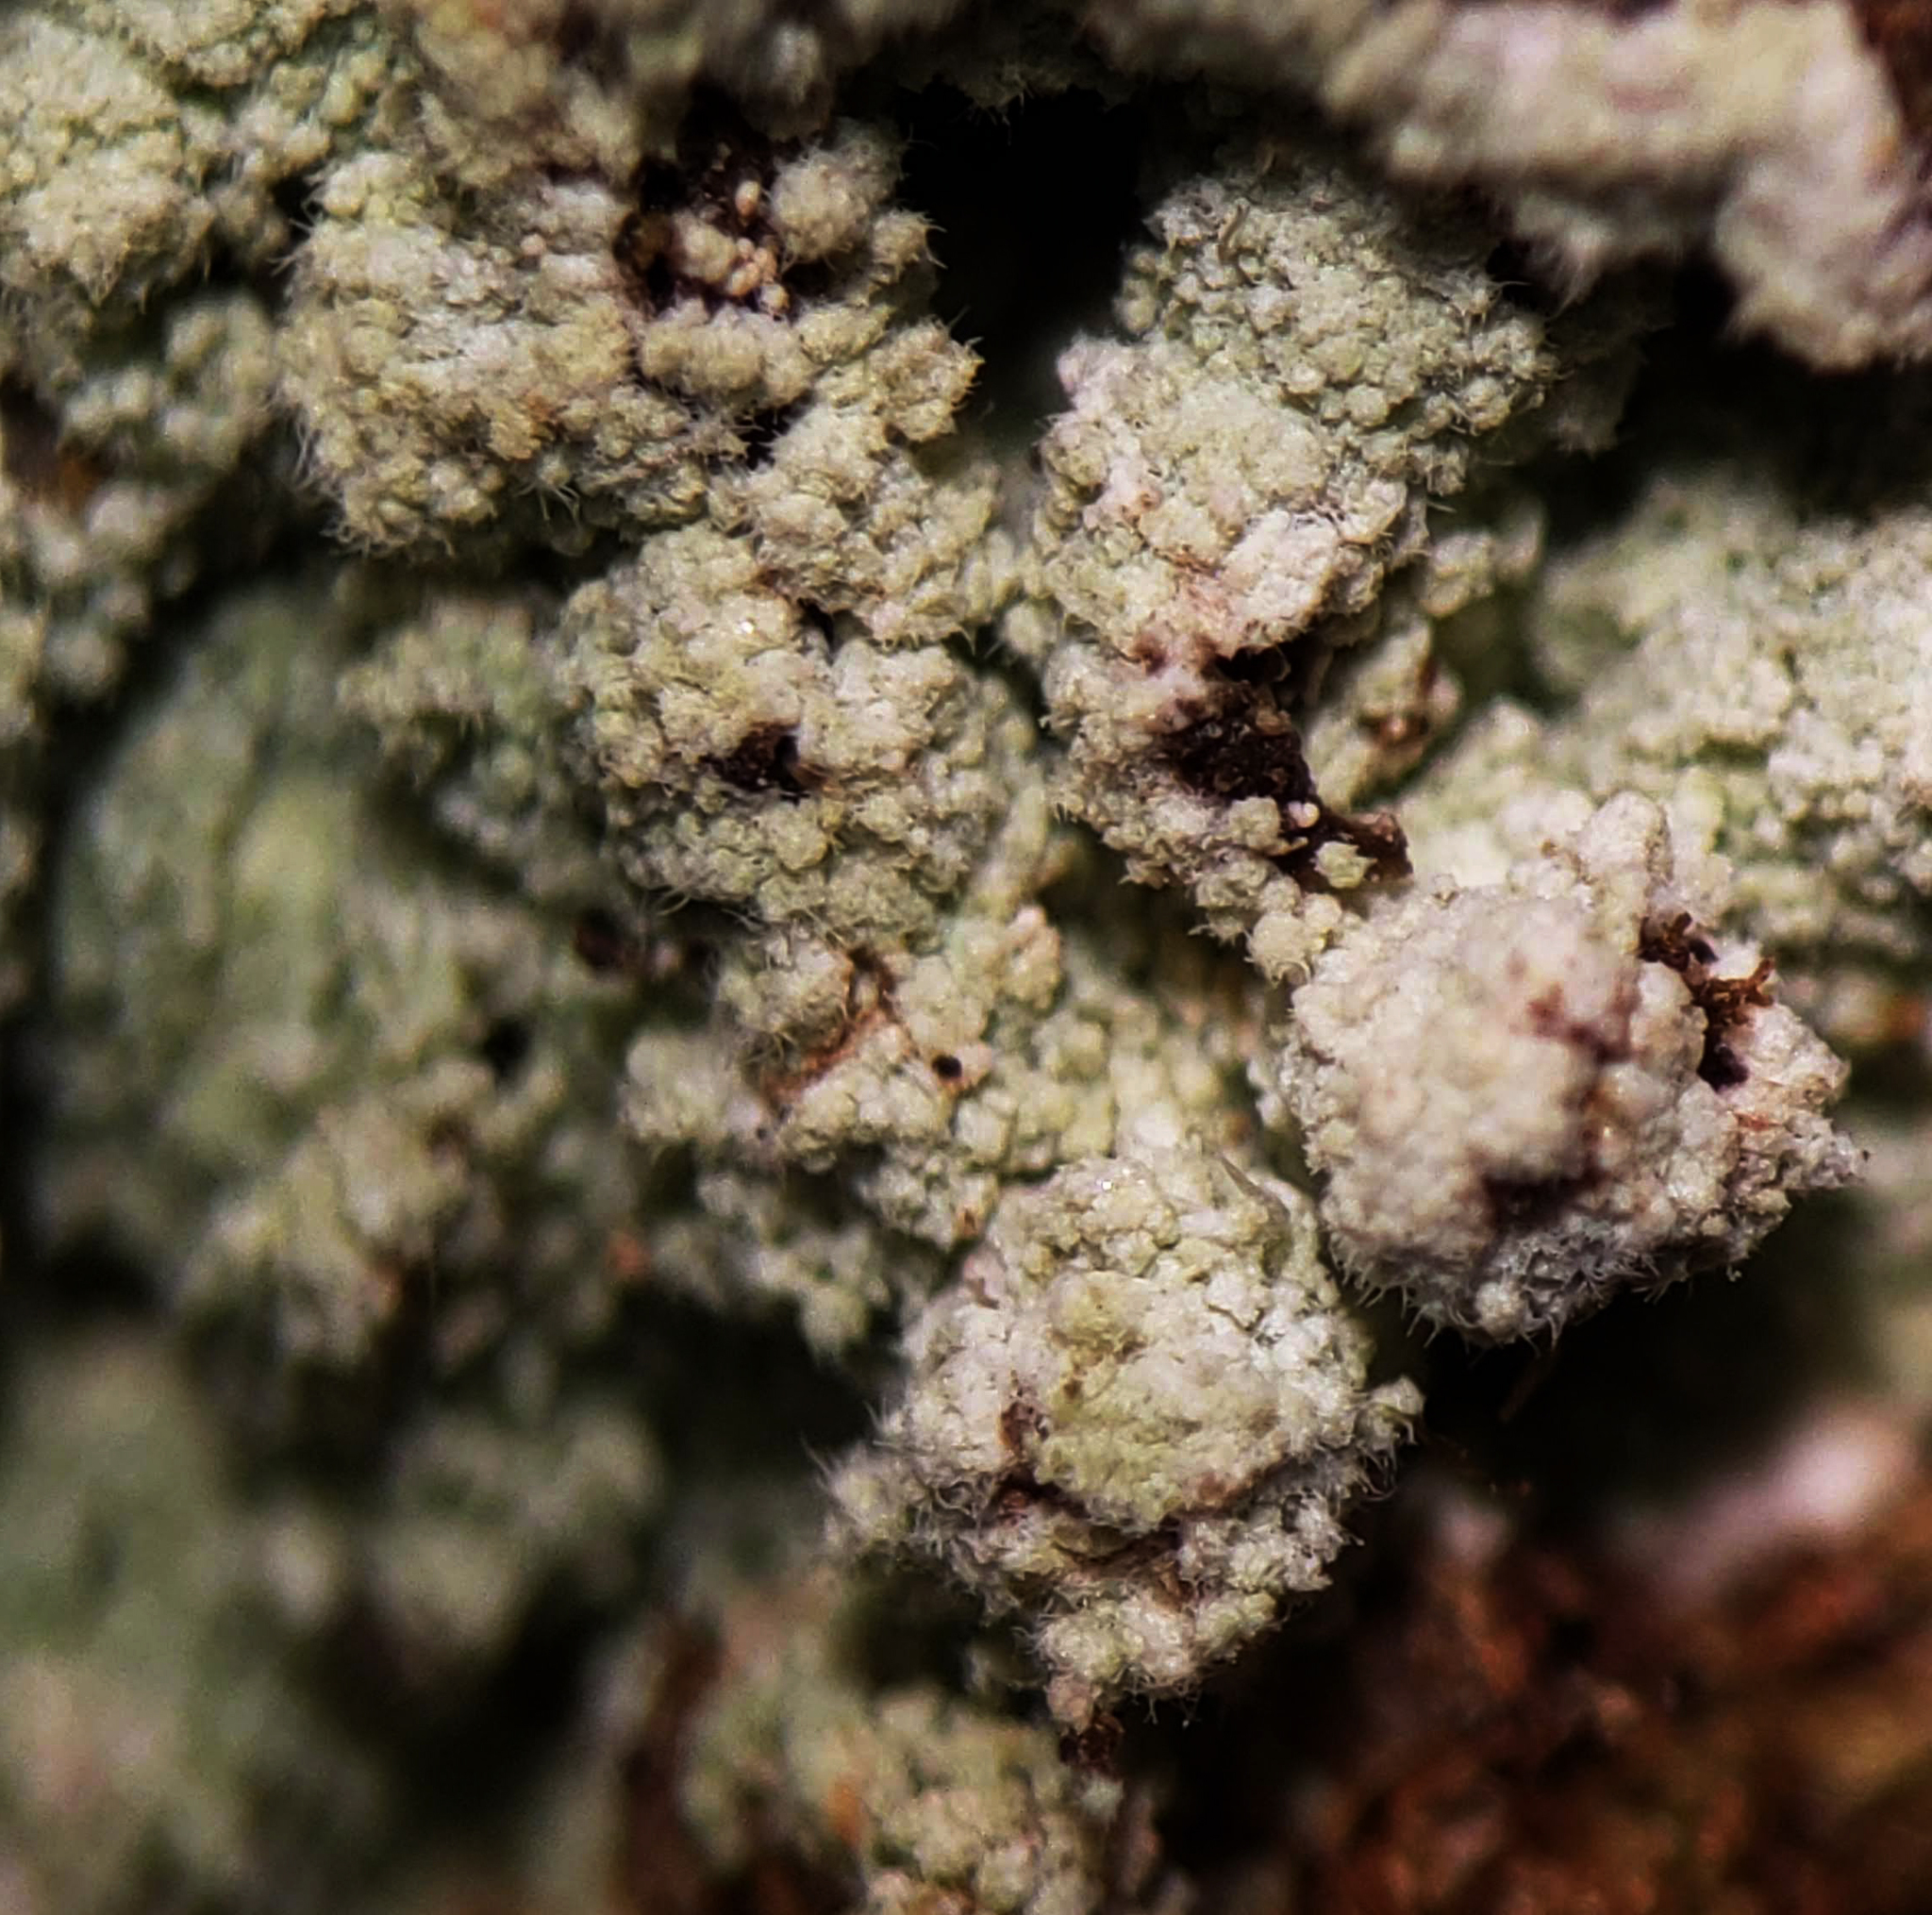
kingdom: Fungi
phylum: Ascomycota
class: Lecanoromycetes
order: Lecanorales
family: Stereocaulaceae
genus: Lepraria
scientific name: Lepraria lobificans
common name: Fluffy dust lichen
